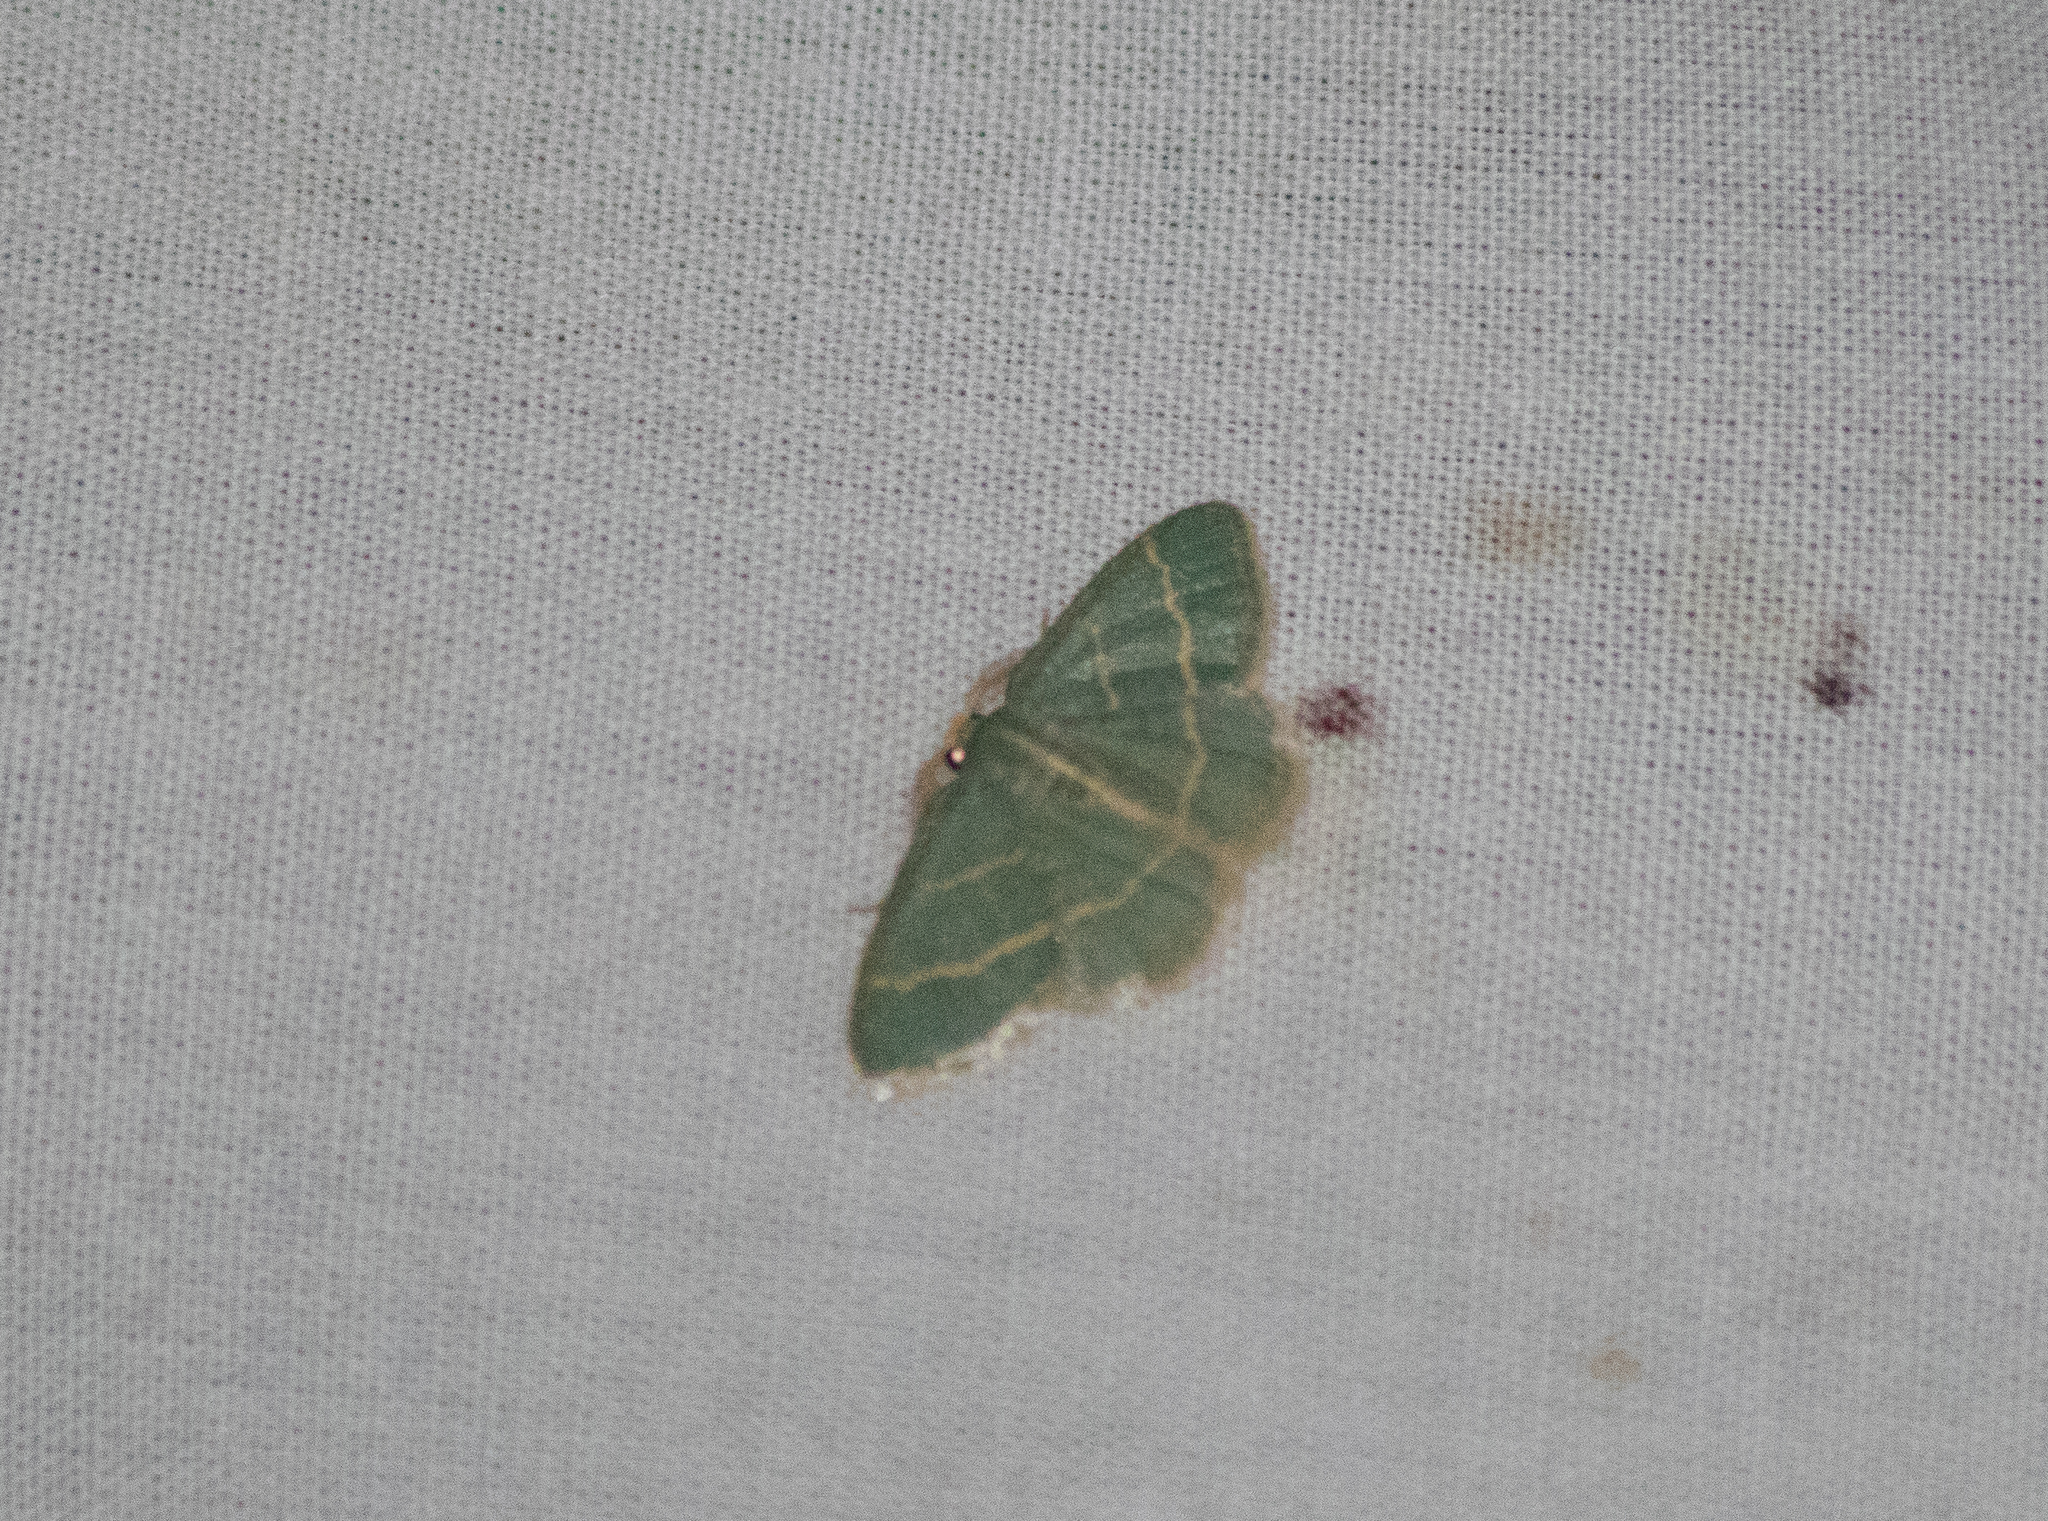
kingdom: Animalia
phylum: Arthropoda
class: Insecta
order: Lepidoptera
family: Geometridae
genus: Chlorochlamys
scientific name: Chlorochlamys chloroleucaria
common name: Blackberry looper
